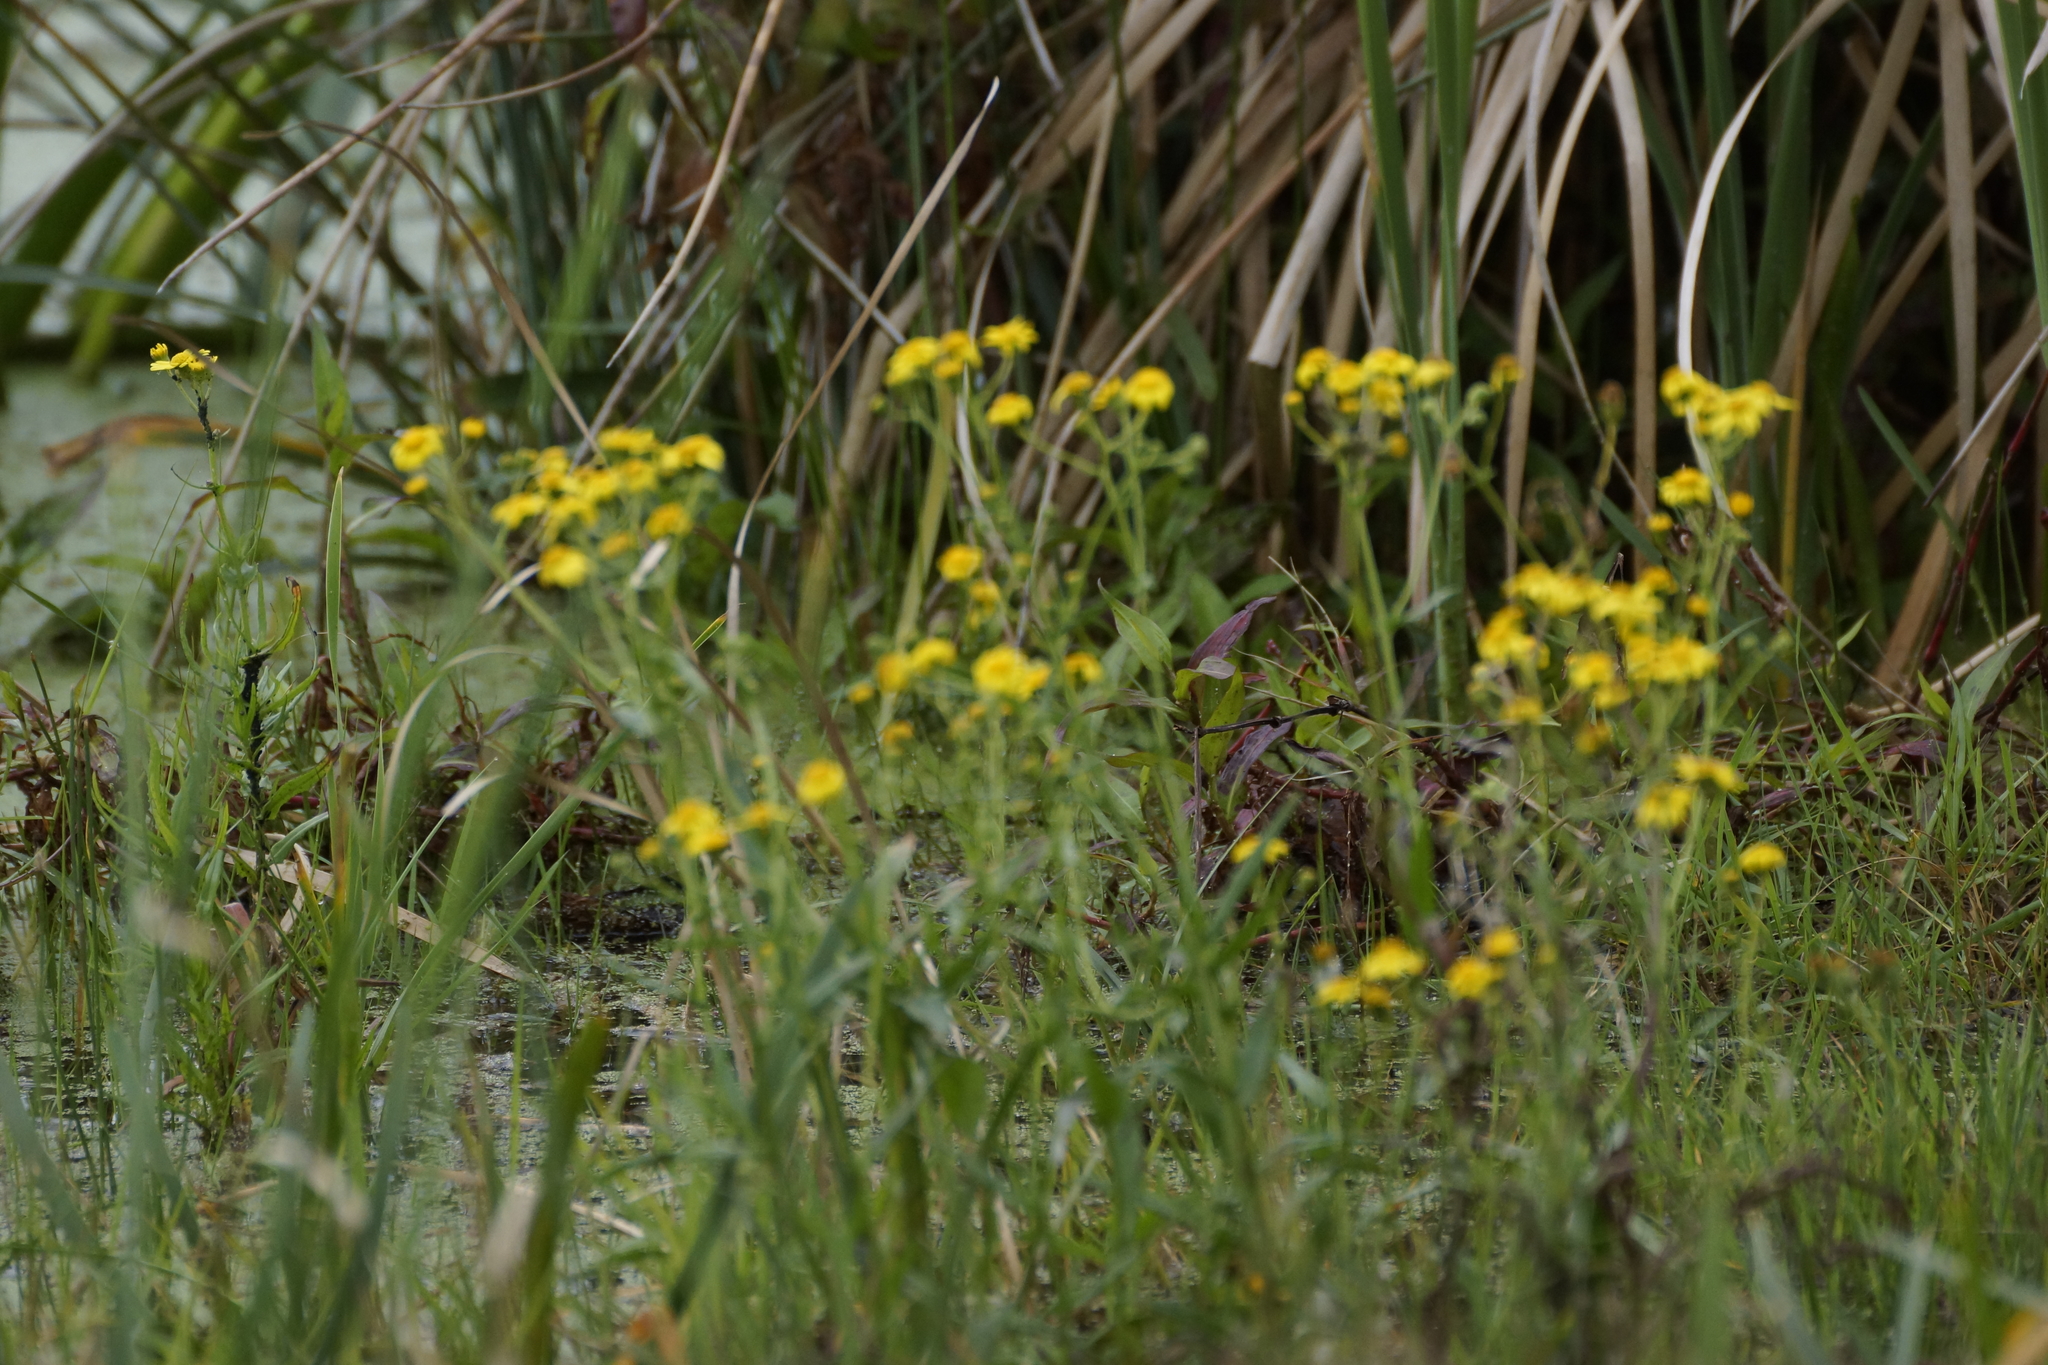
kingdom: Plantae
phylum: Tracheophyta
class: Magnoliopsida
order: Asterales
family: Asteraceae
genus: Senecio
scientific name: Senecio pinnatifolius
